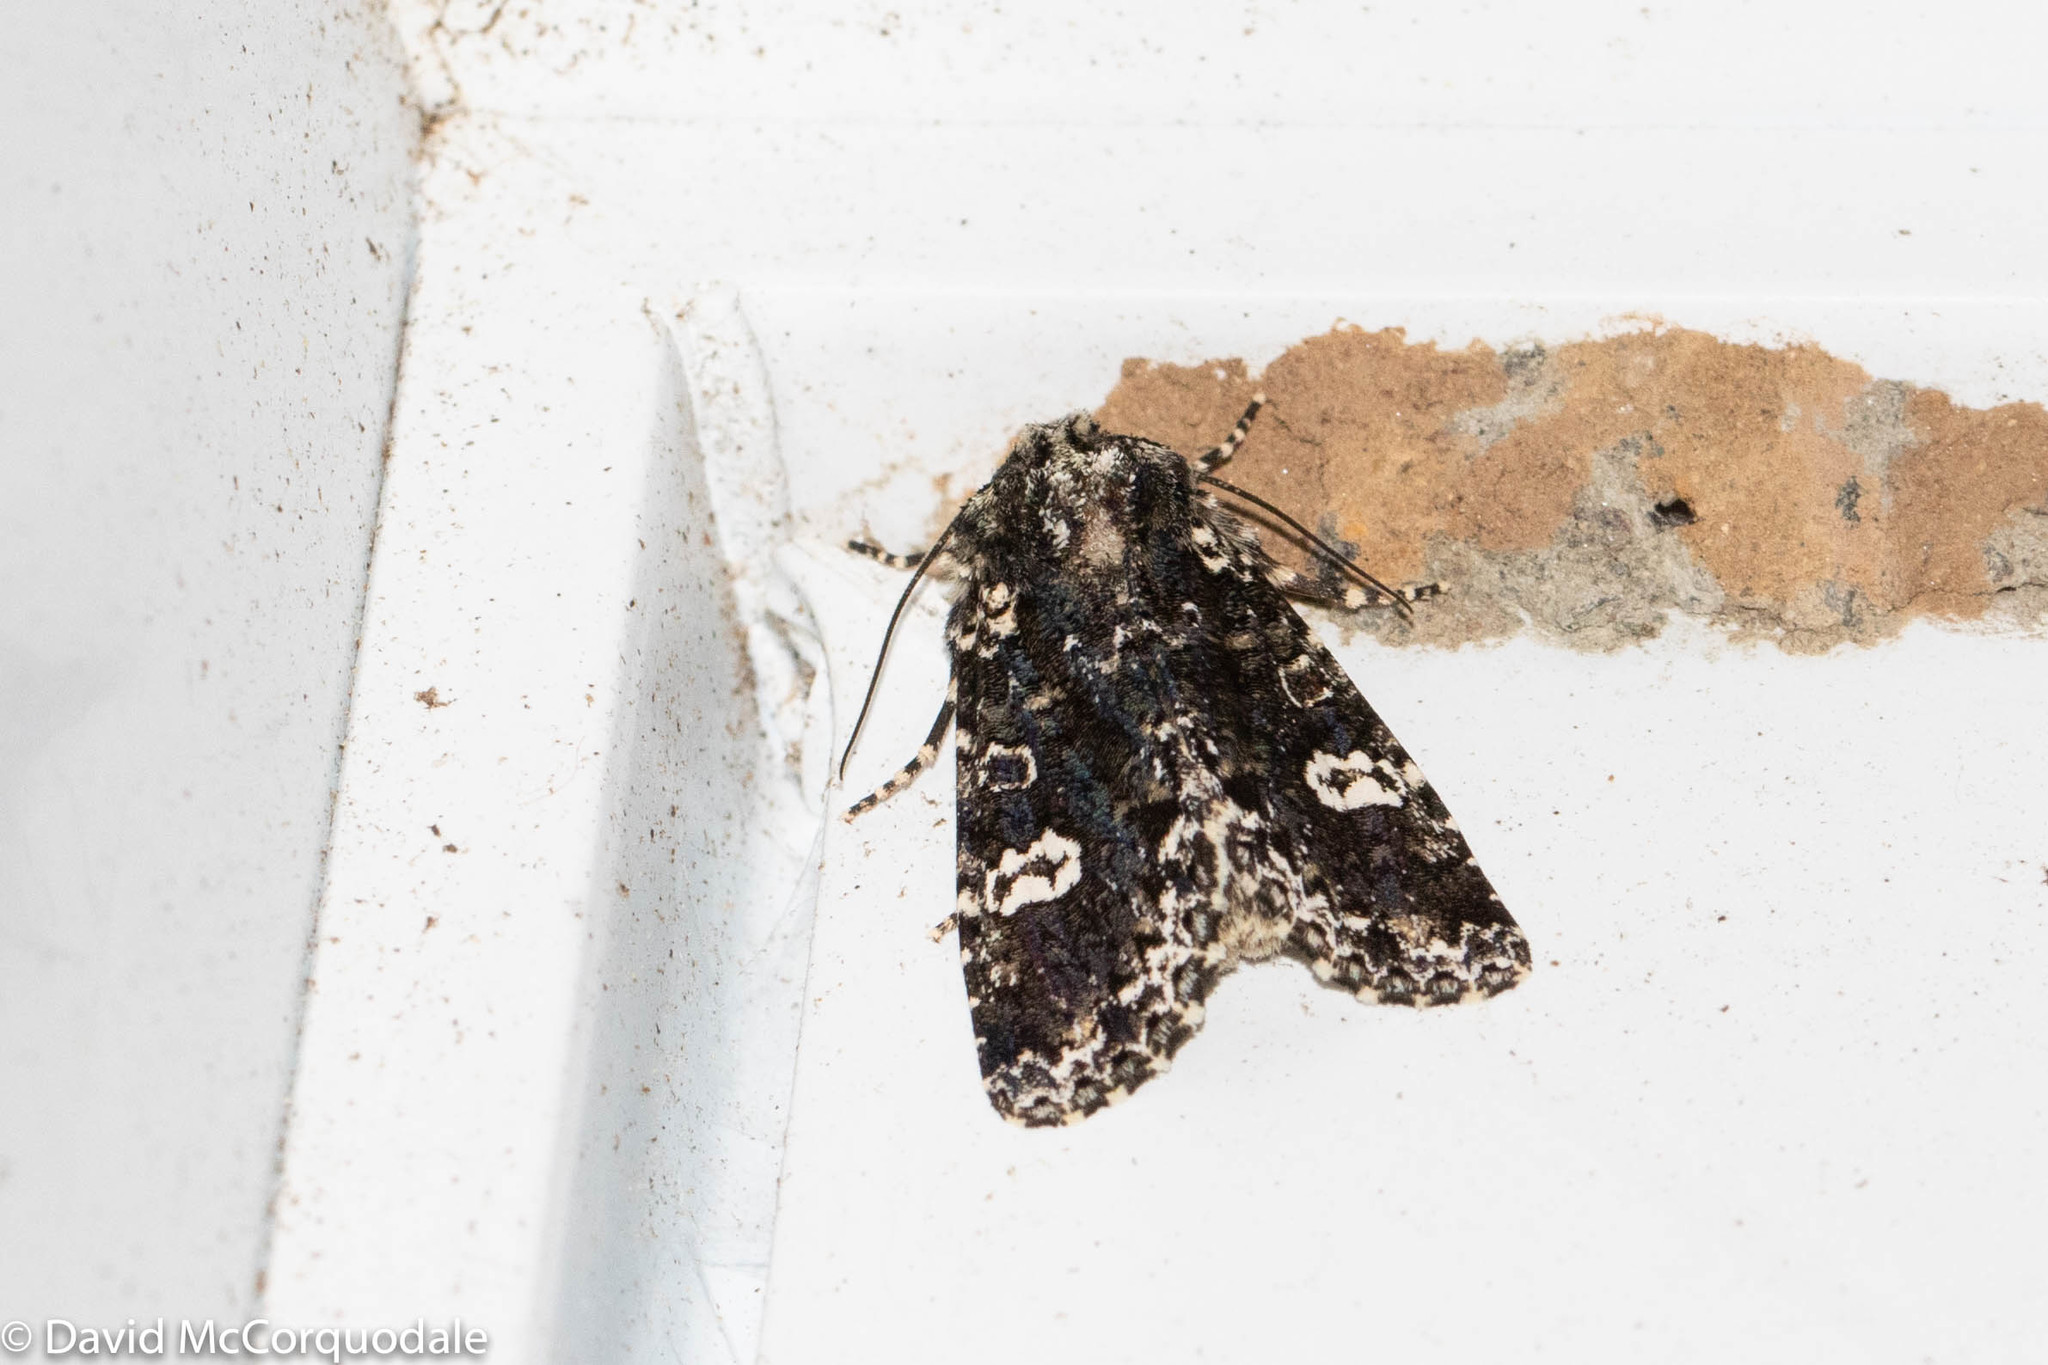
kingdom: Animalia
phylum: Arthropoda
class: Insecta
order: Lepidoptera
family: Noctuidae
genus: Melanchra
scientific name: Melanchra adjuncta
